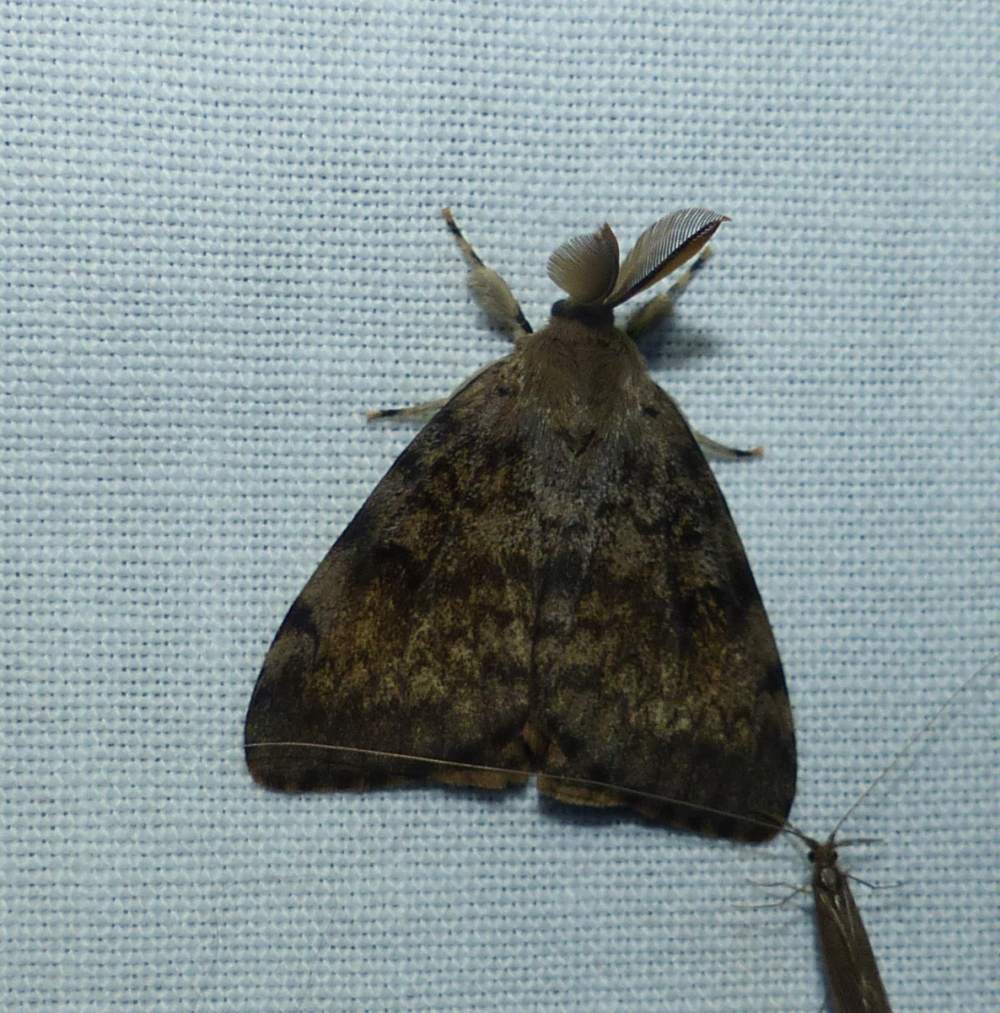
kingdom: Animalia
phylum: Arthropoda
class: Insecta
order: Lepidoptera
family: Erebidae
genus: Lymantria
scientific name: Lymantria dispar
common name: Gypsy moth
